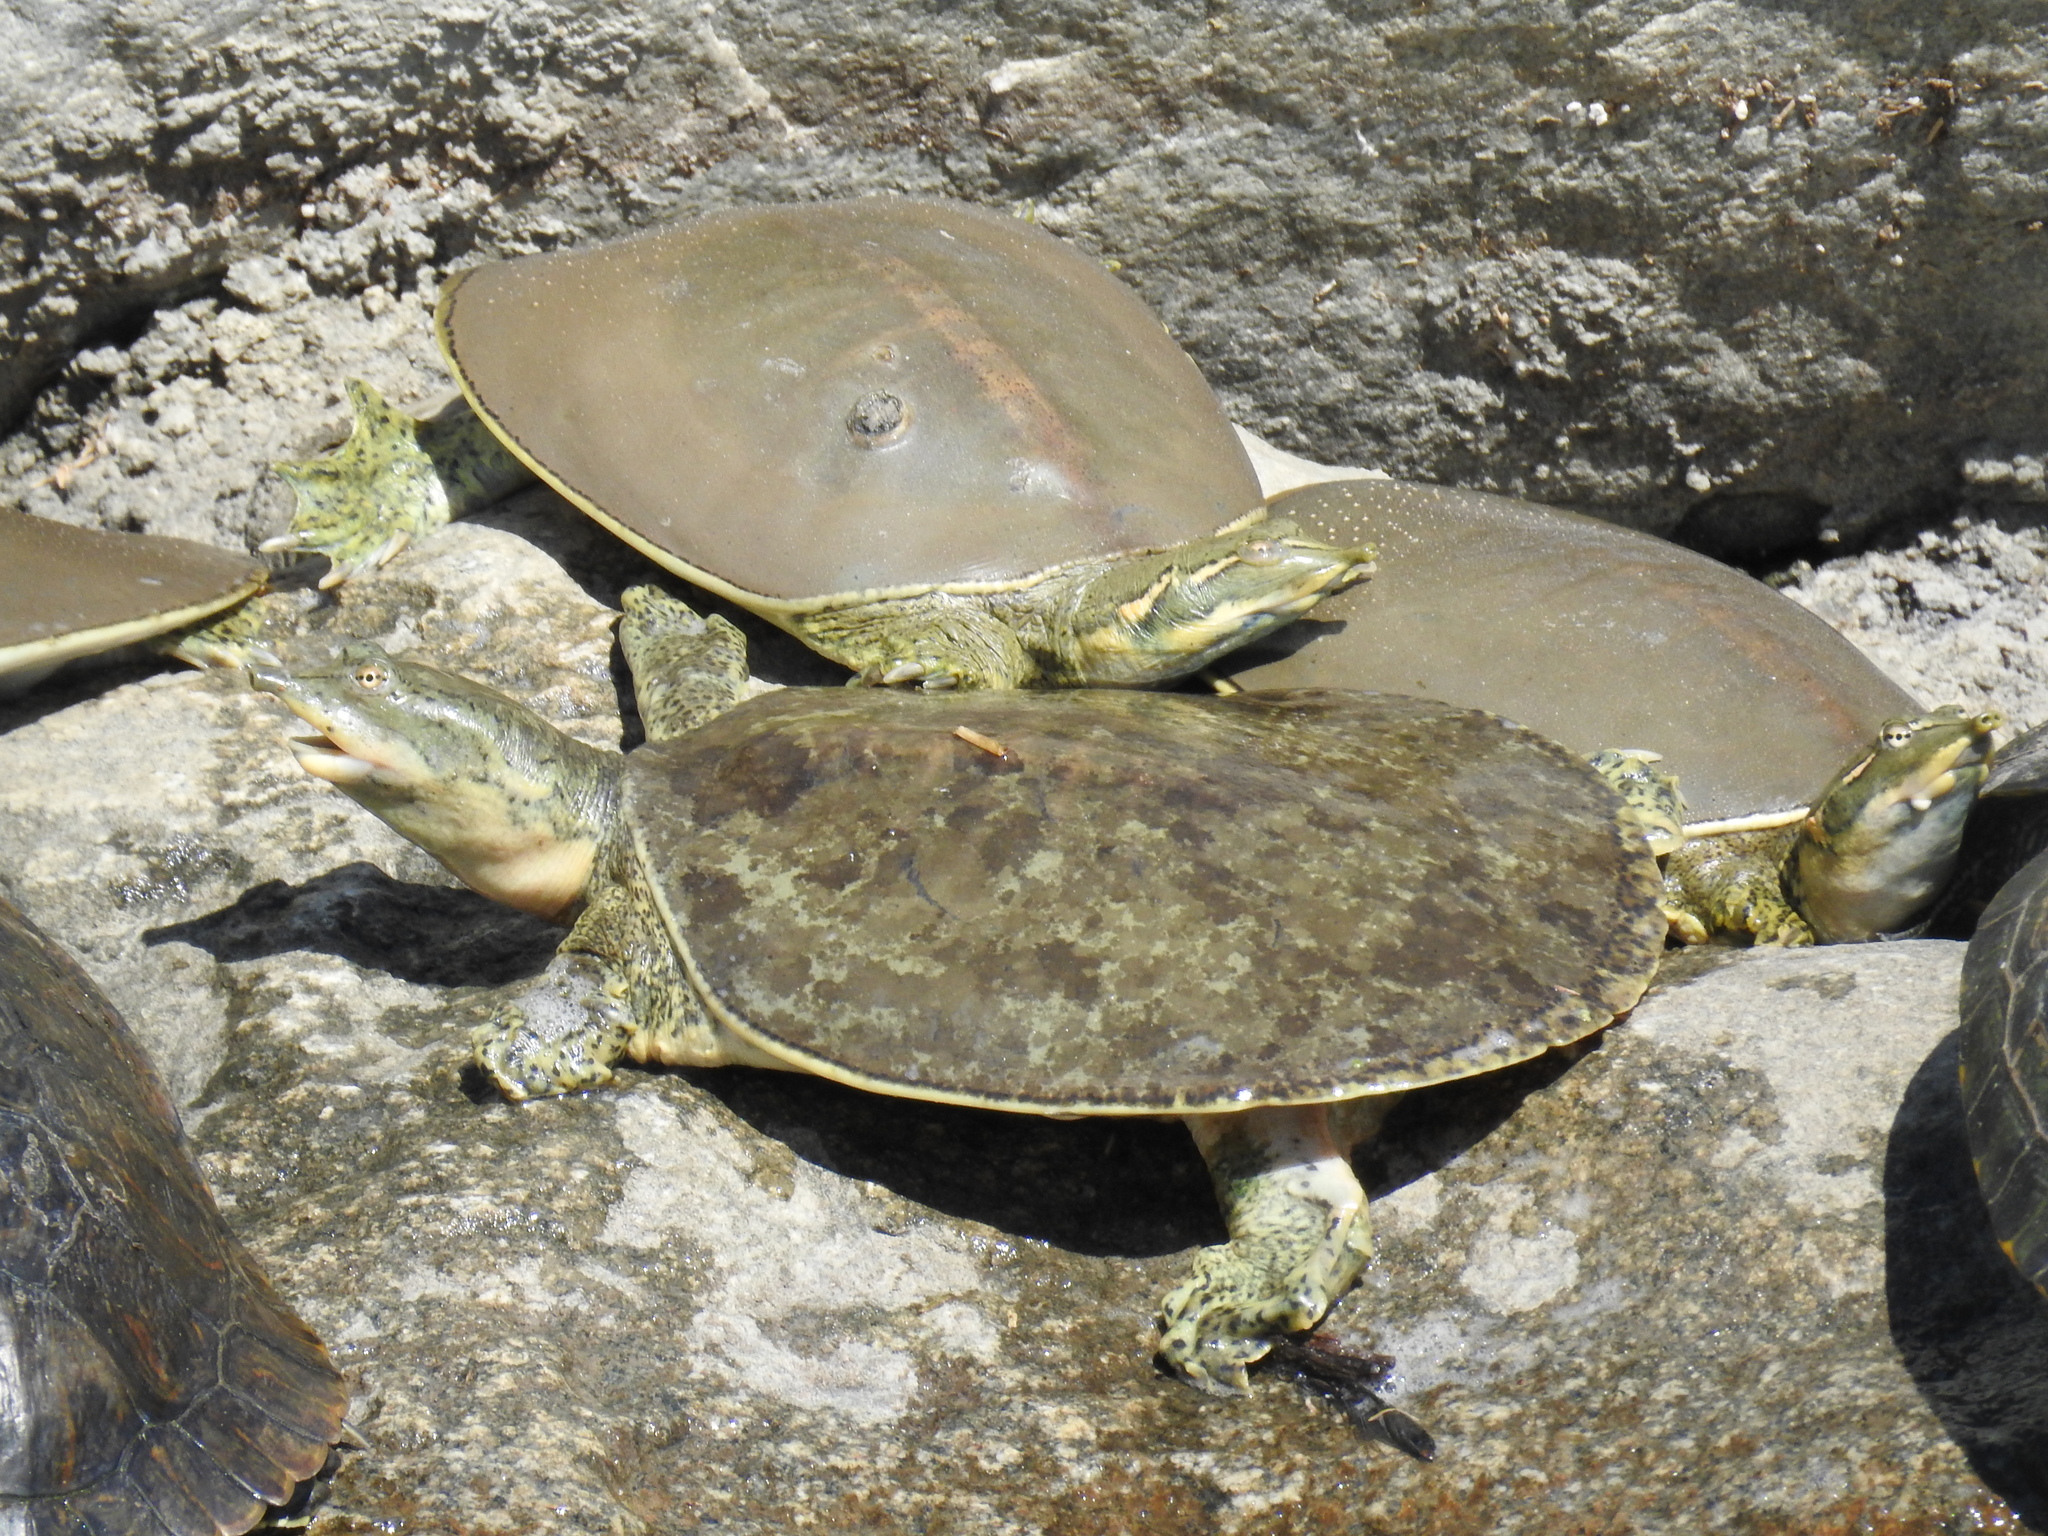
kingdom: Animalia
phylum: Chordata
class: Testudines
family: Trionychidae
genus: Apalone
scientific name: Apalone spinifera
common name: Spiny softshell turtle
